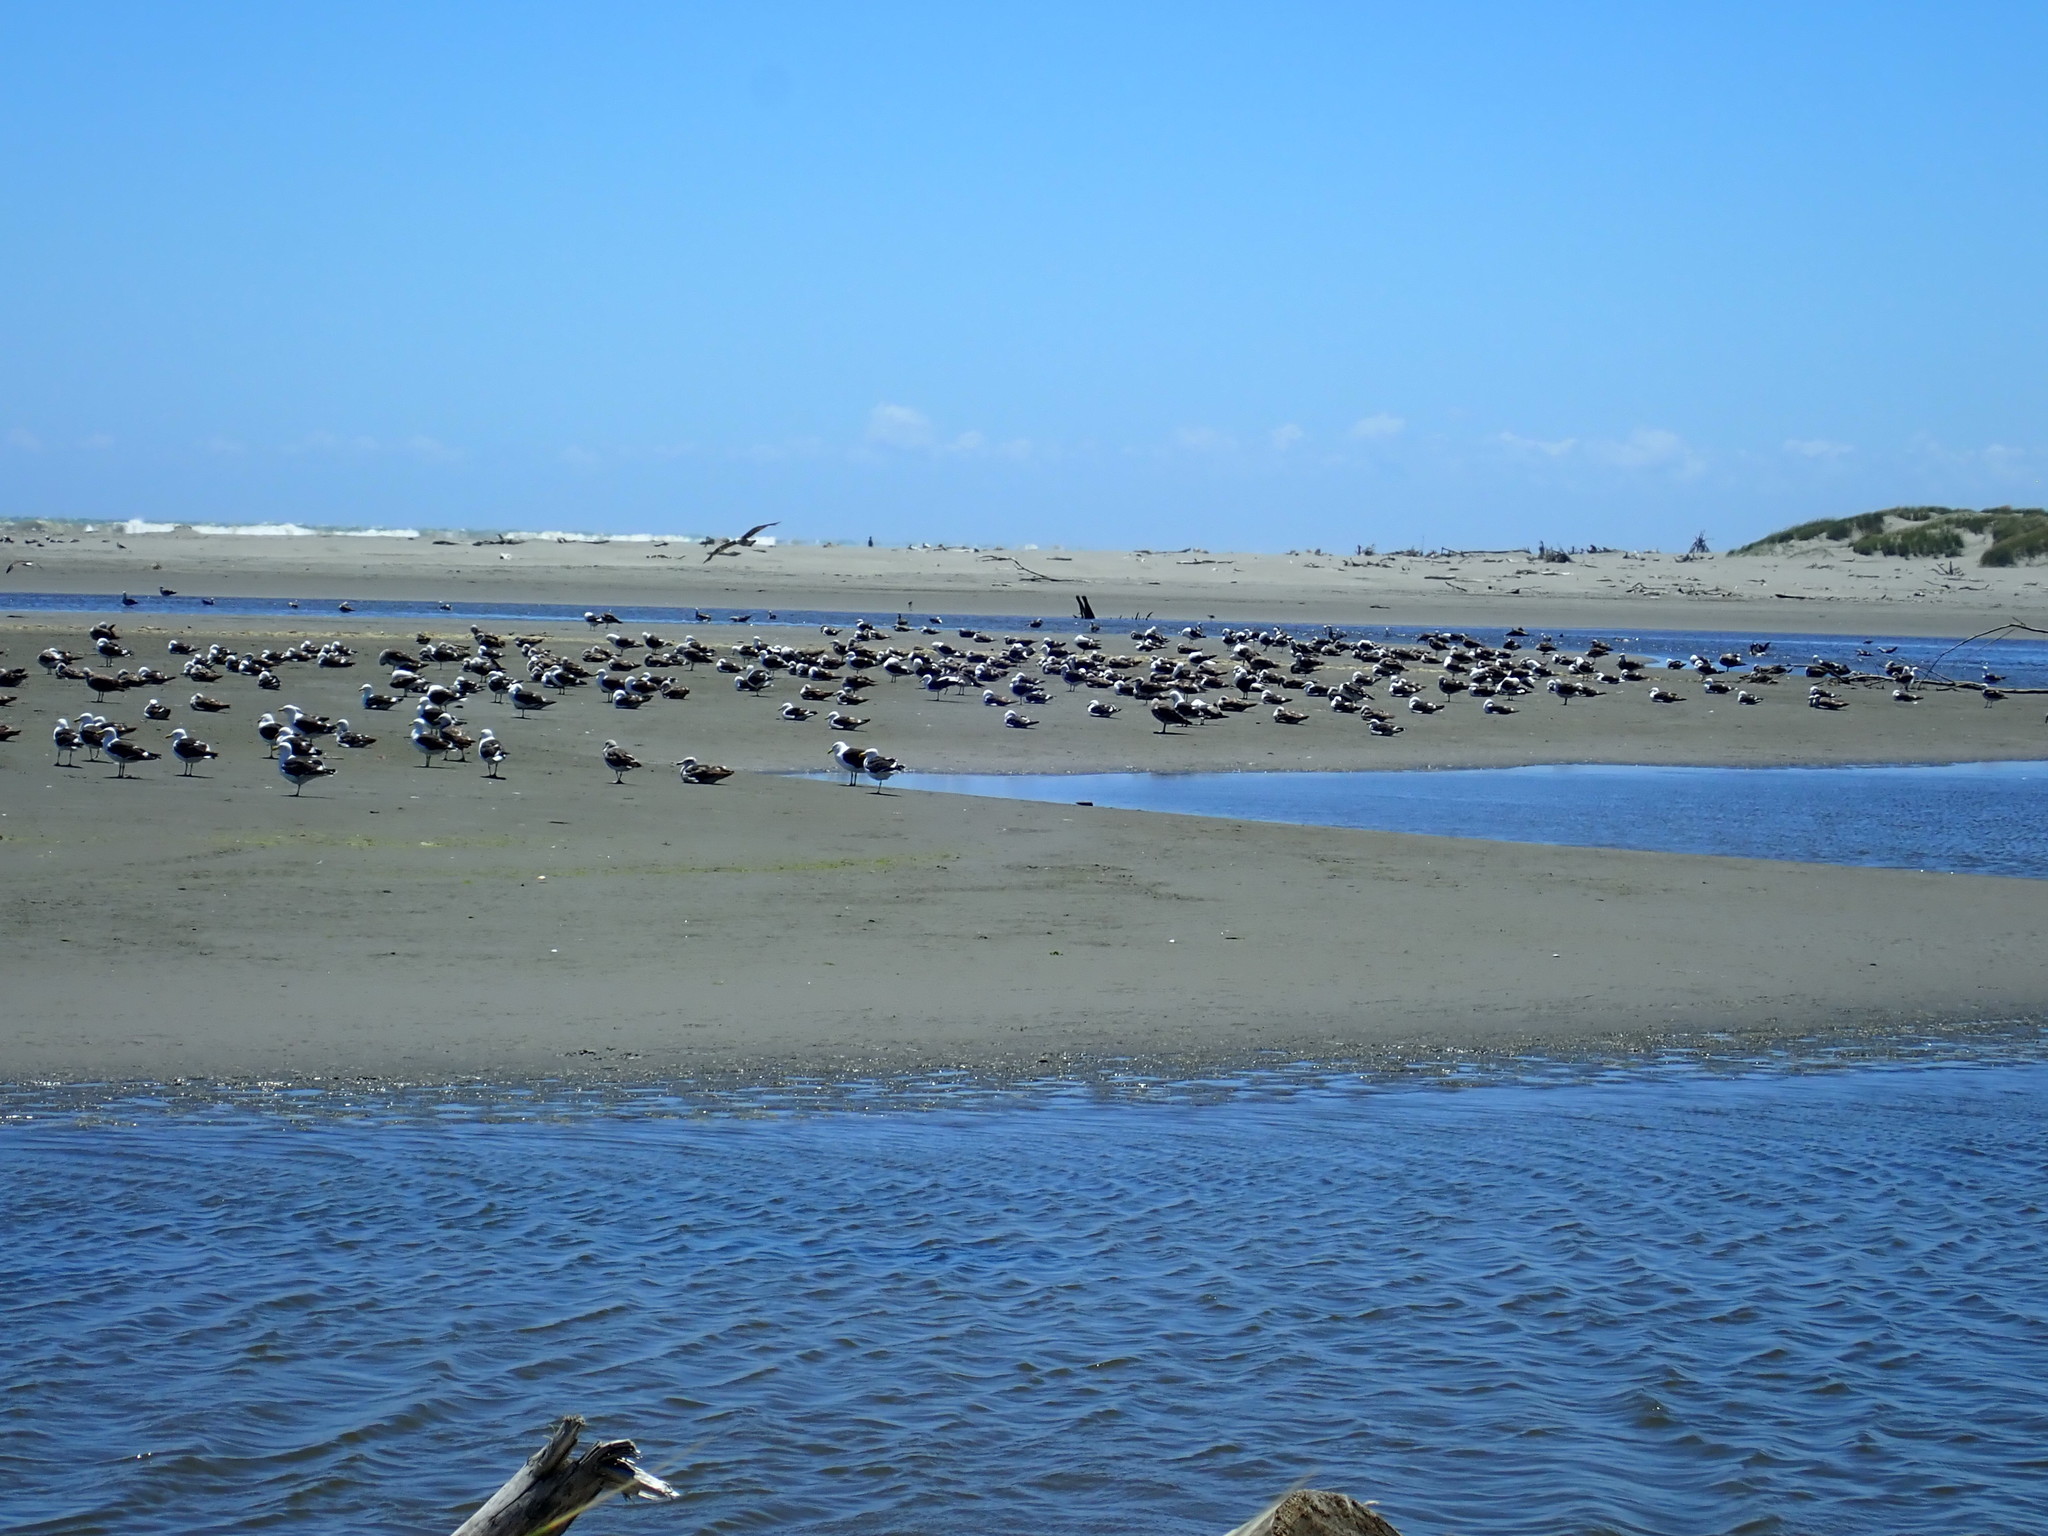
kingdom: Animalia
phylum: Chordata
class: Aves
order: Charadriiformes
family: Laridae
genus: Larus
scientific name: Larus dominicanus
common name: Kelp gull
